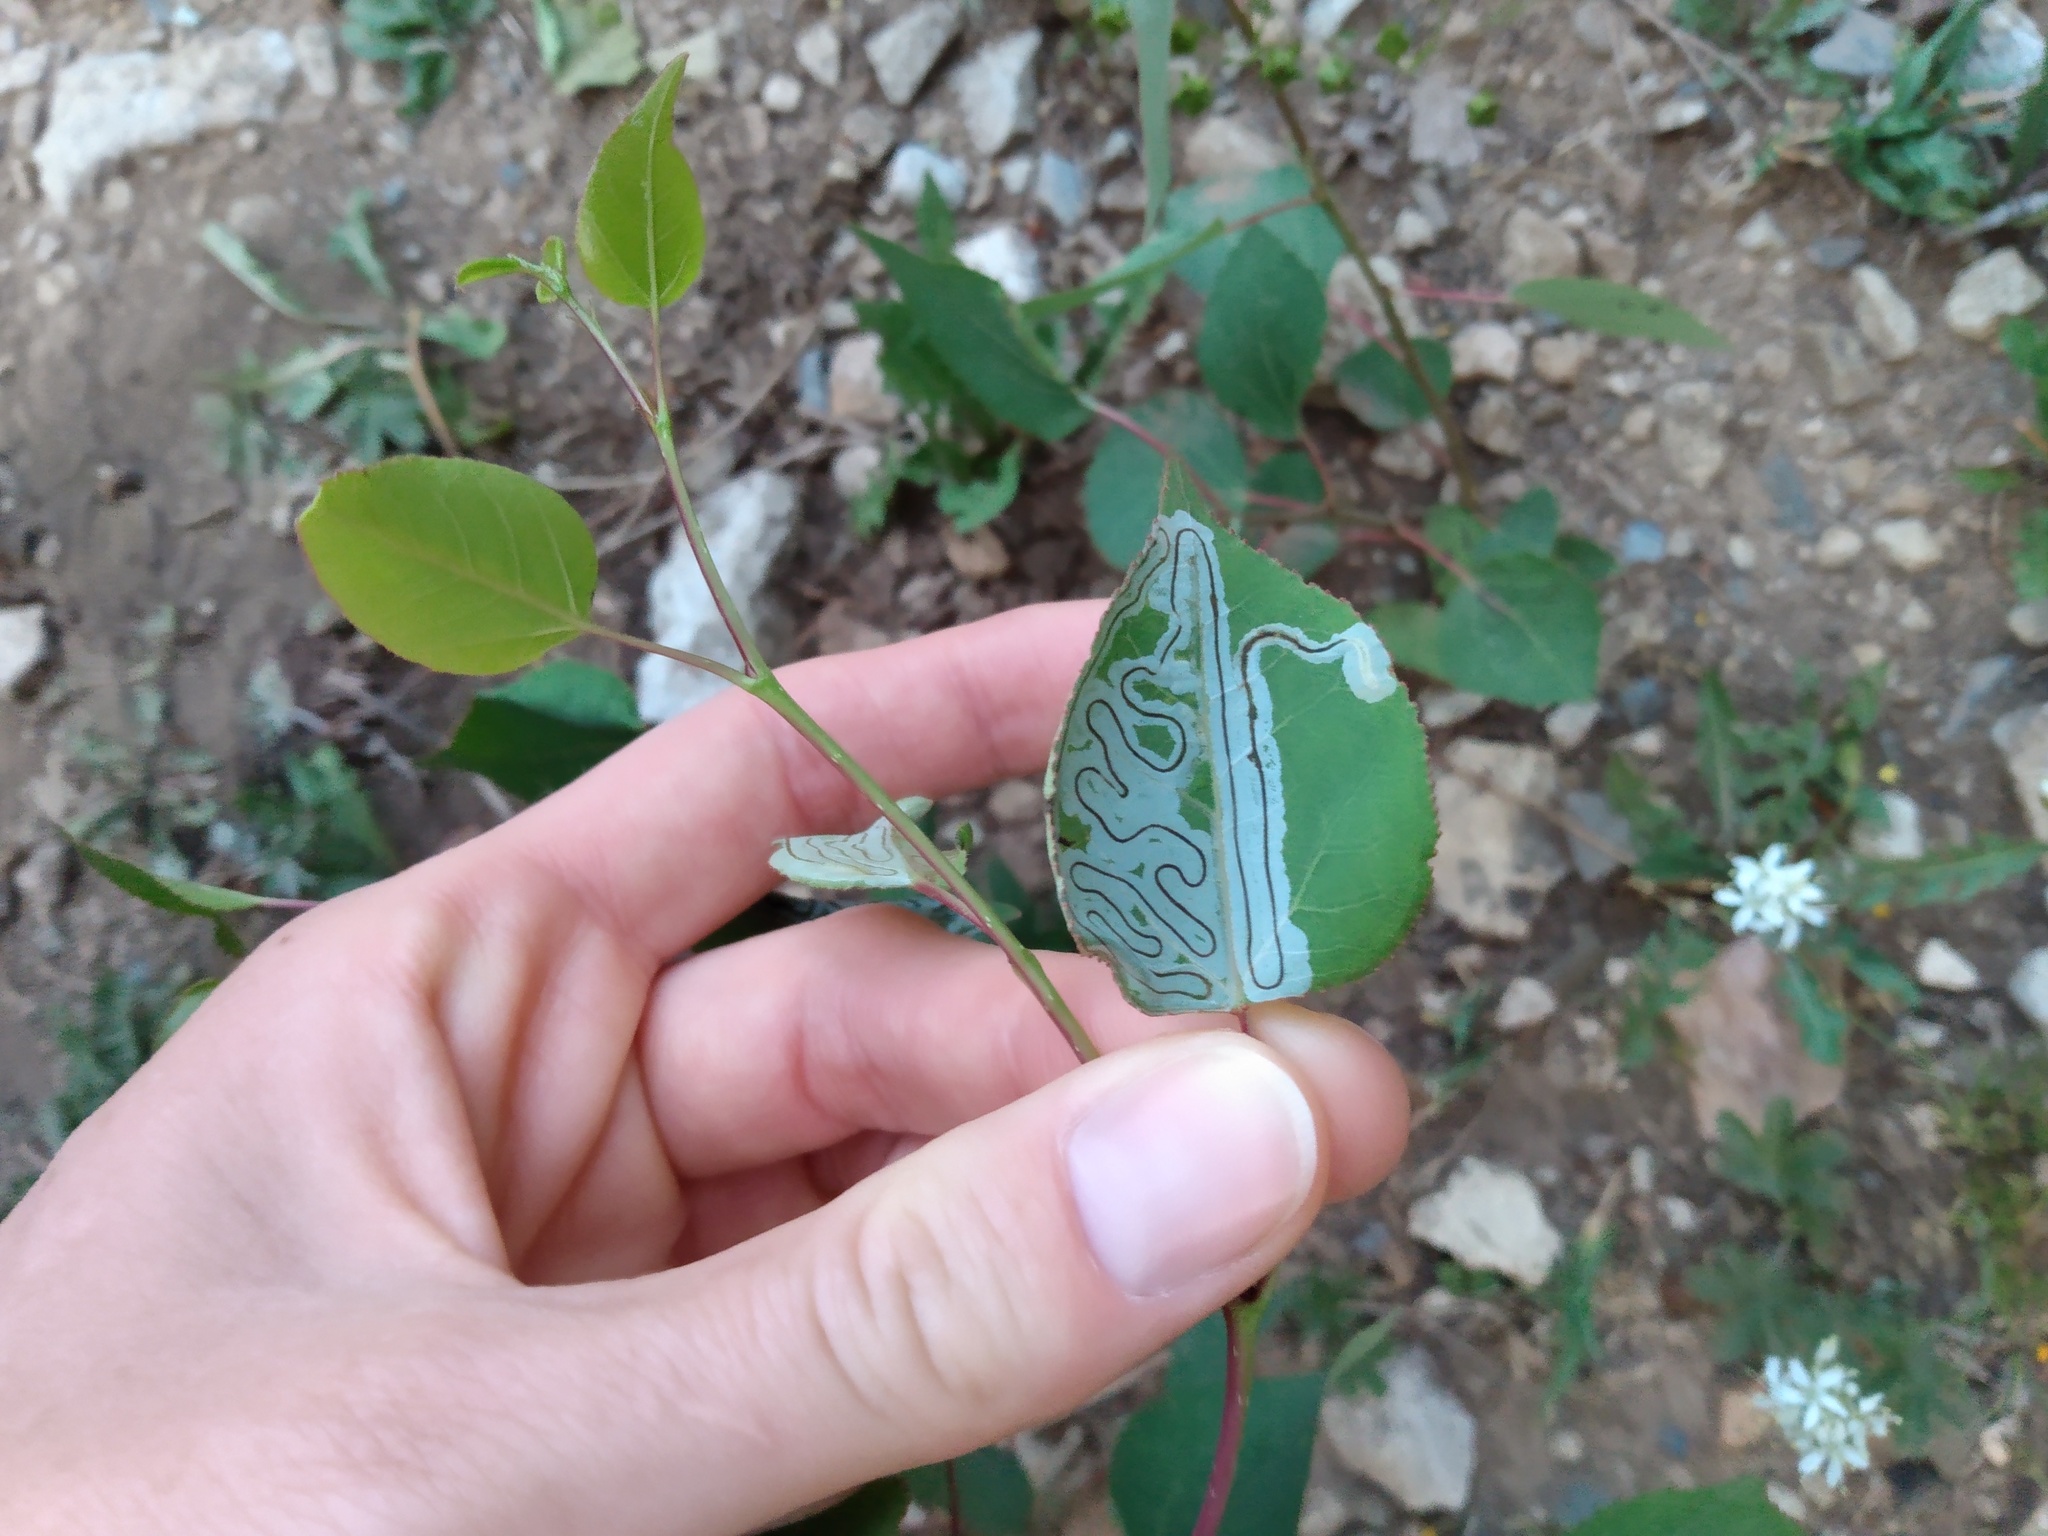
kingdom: Animalia
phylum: Arthropoda
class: Insecta
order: Lepidoptera
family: Gracillariidae
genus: Phyllocnistis
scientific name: Phyllocnistis populiella
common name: Aspen serpentine leafminer moth
